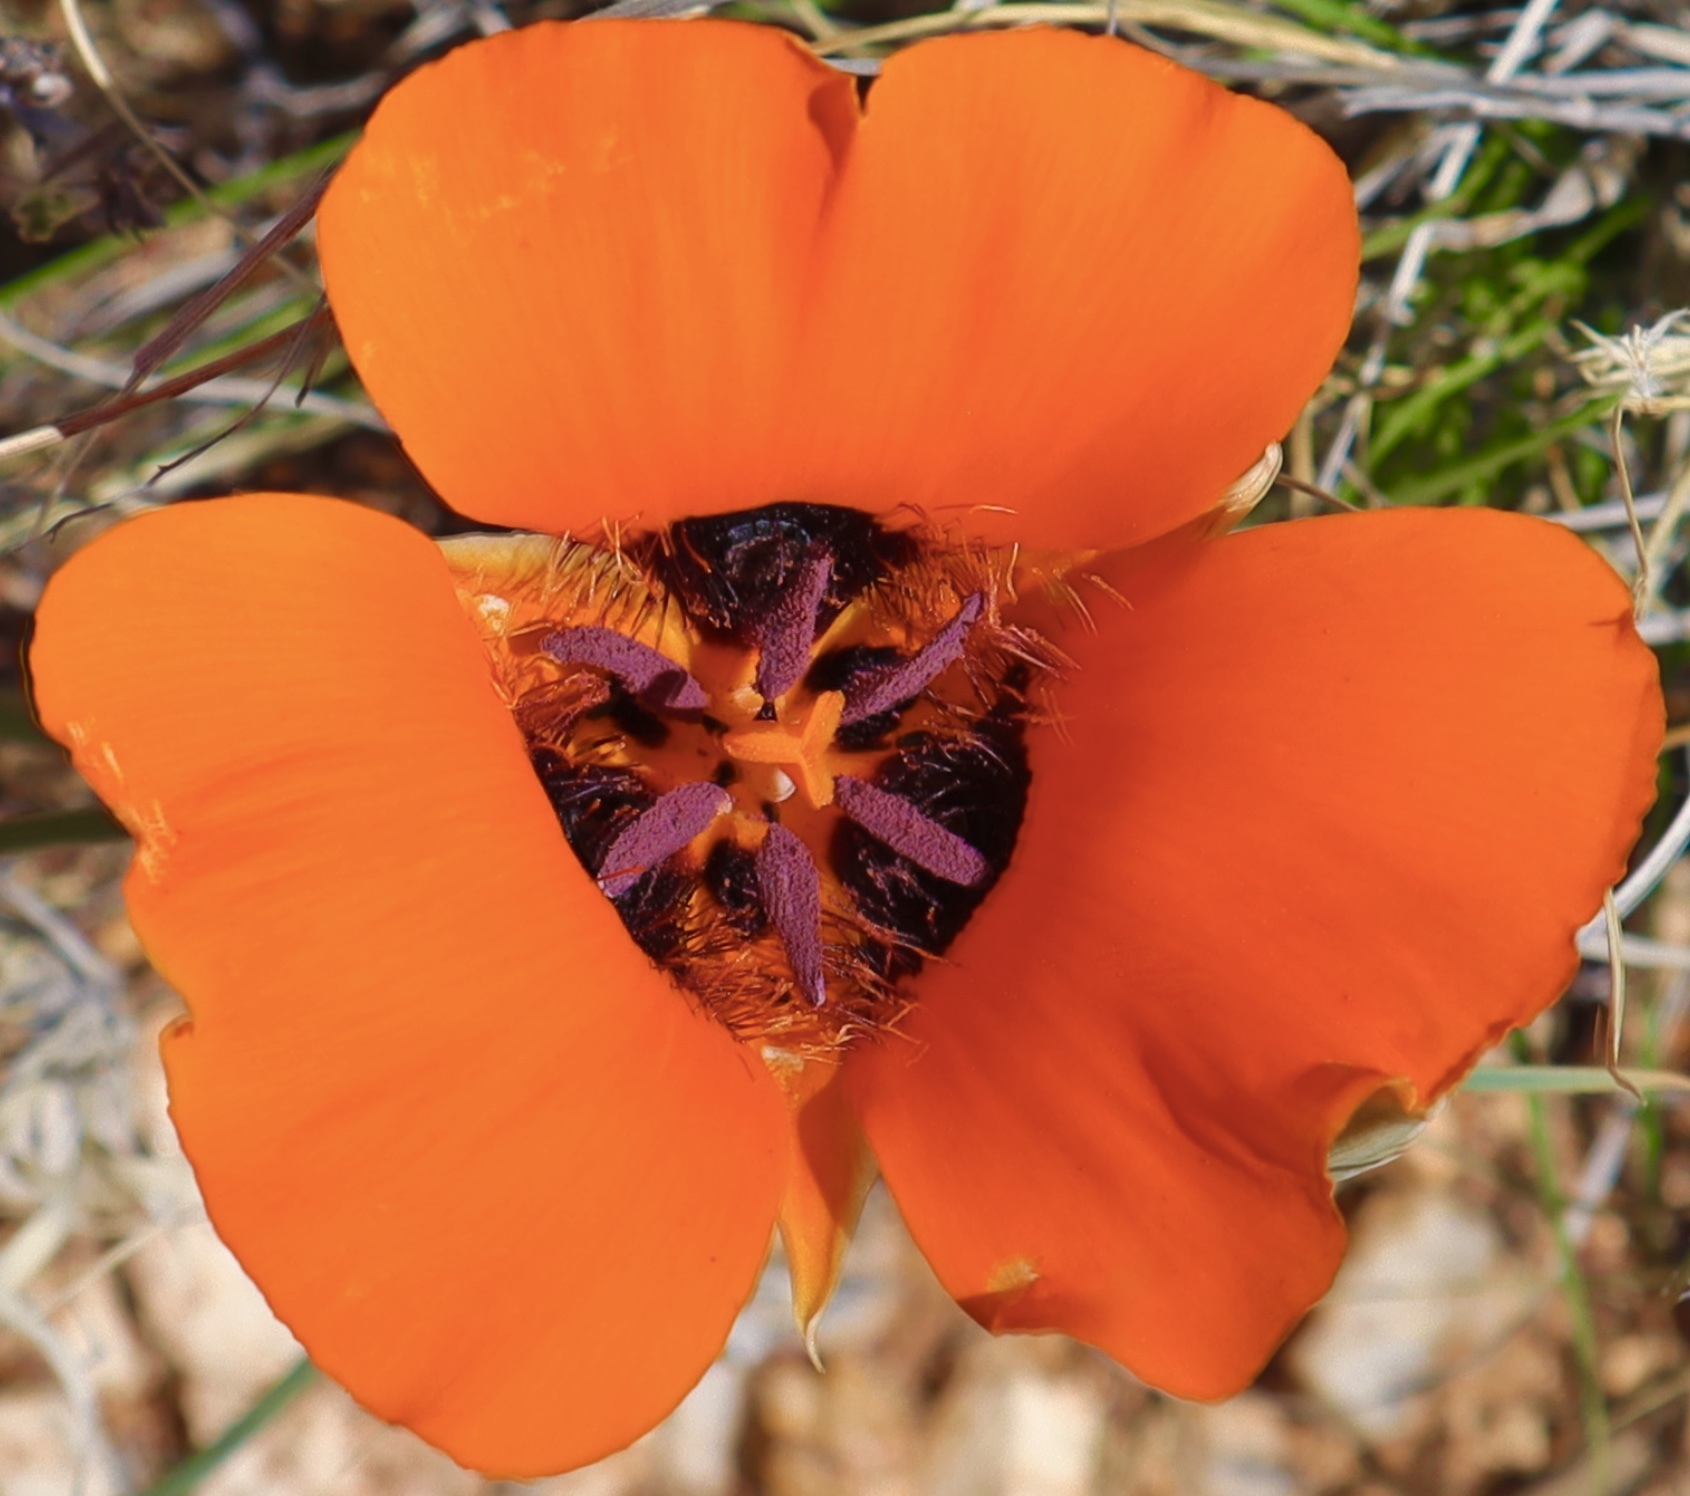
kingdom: Plantae
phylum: Tracheophyta
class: Liliopsida
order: Liliales
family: Liliaceae
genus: Calochortus
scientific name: Calochortus kennedyi
